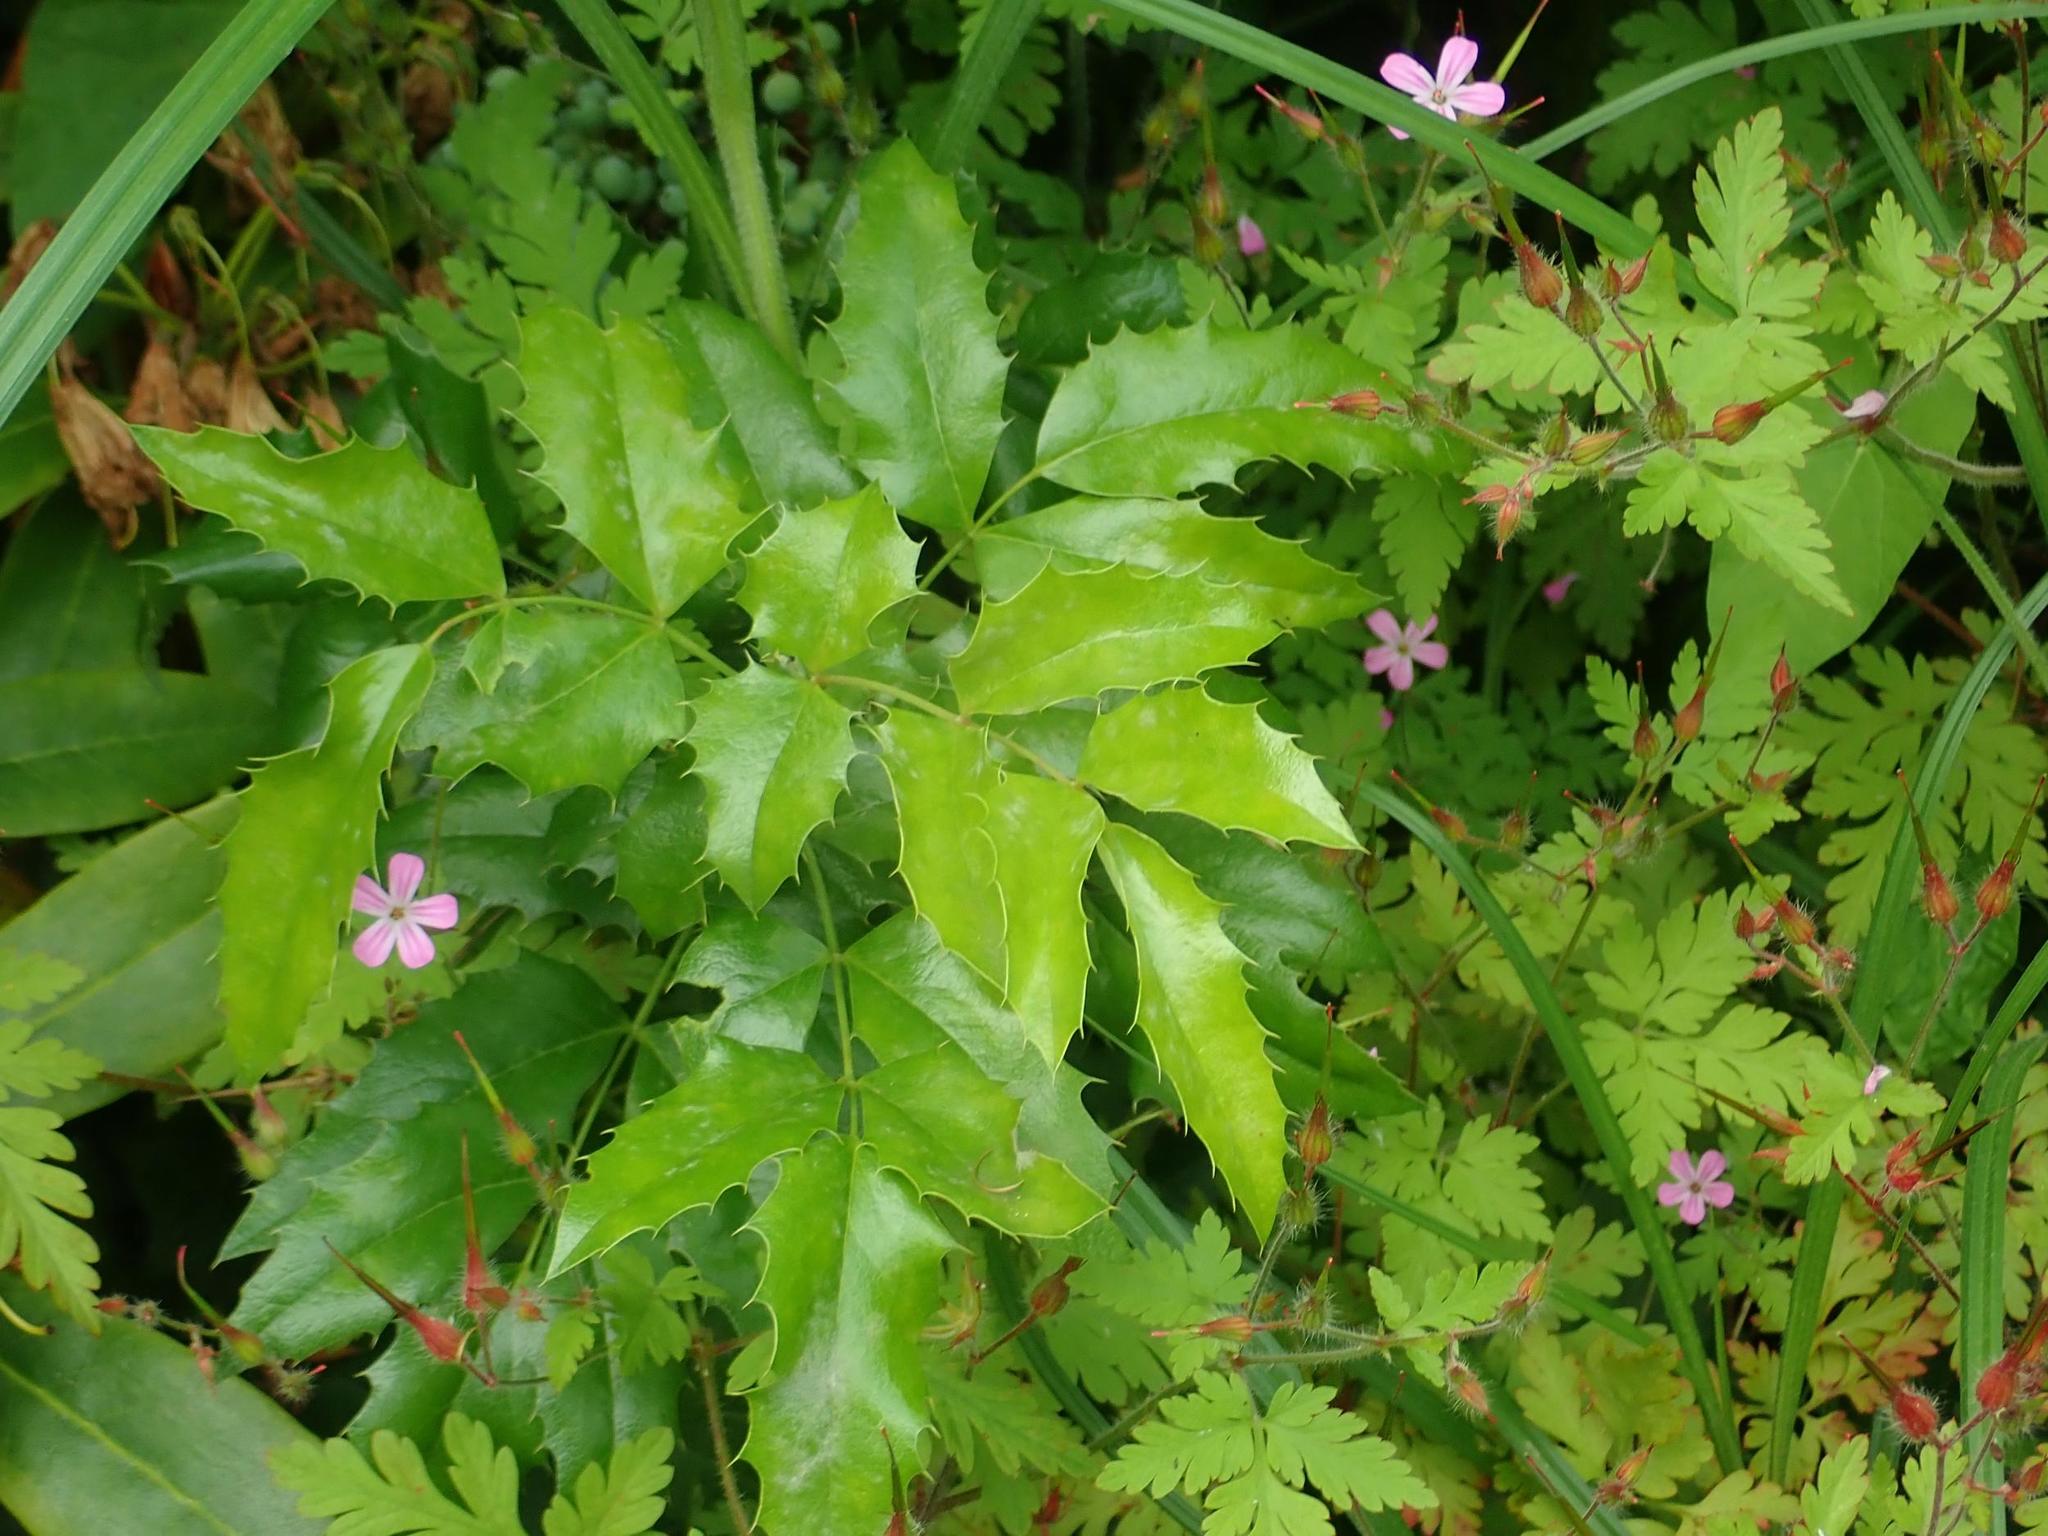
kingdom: Plantae
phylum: Tracheophyta
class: Magnoliopsida
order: Ranunculales
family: Berberidaceae
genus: Mahonia
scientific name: Mahonia aquifolium
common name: Oregon-grape
